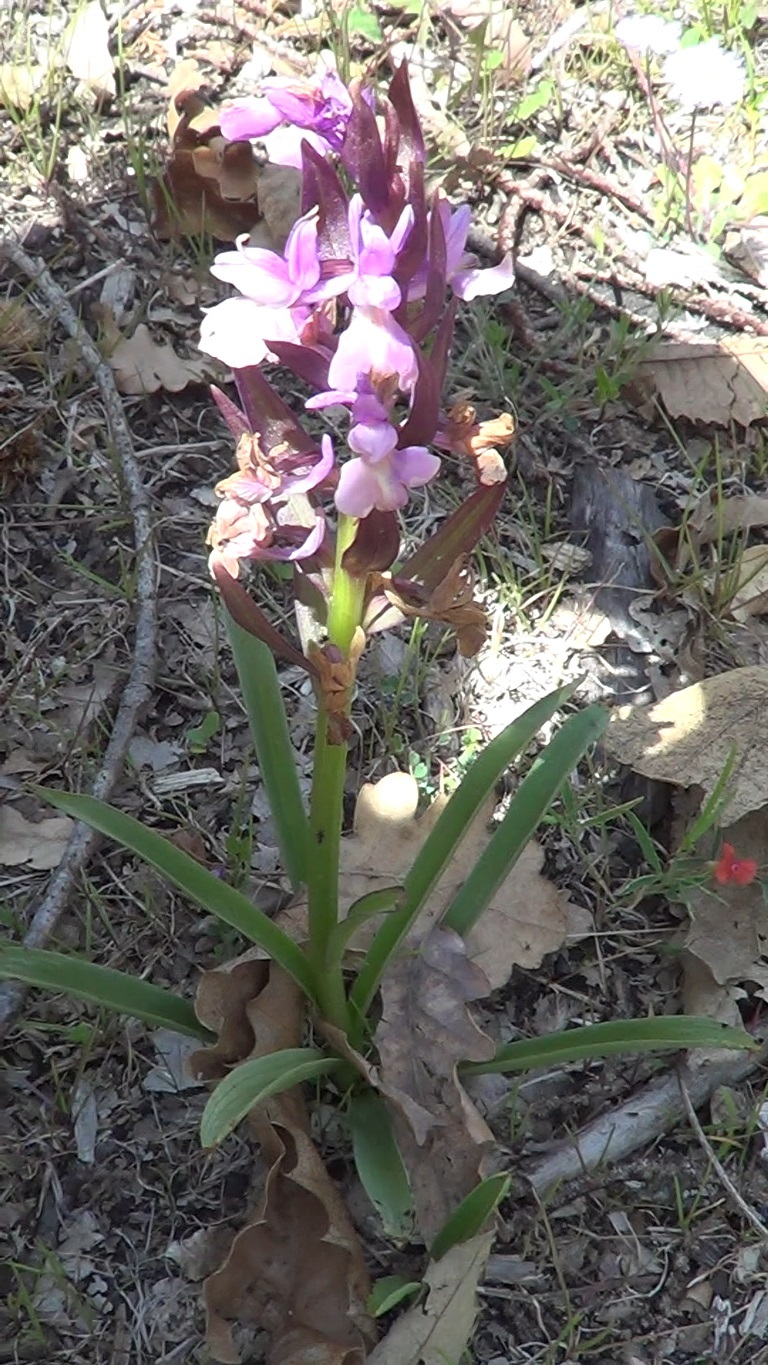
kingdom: Plantae
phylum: Tracheophyta
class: Liliopsida
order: Asparagales
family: Orchidaceae
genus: Dactylorhiza
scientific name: Dactylorhiza romana
